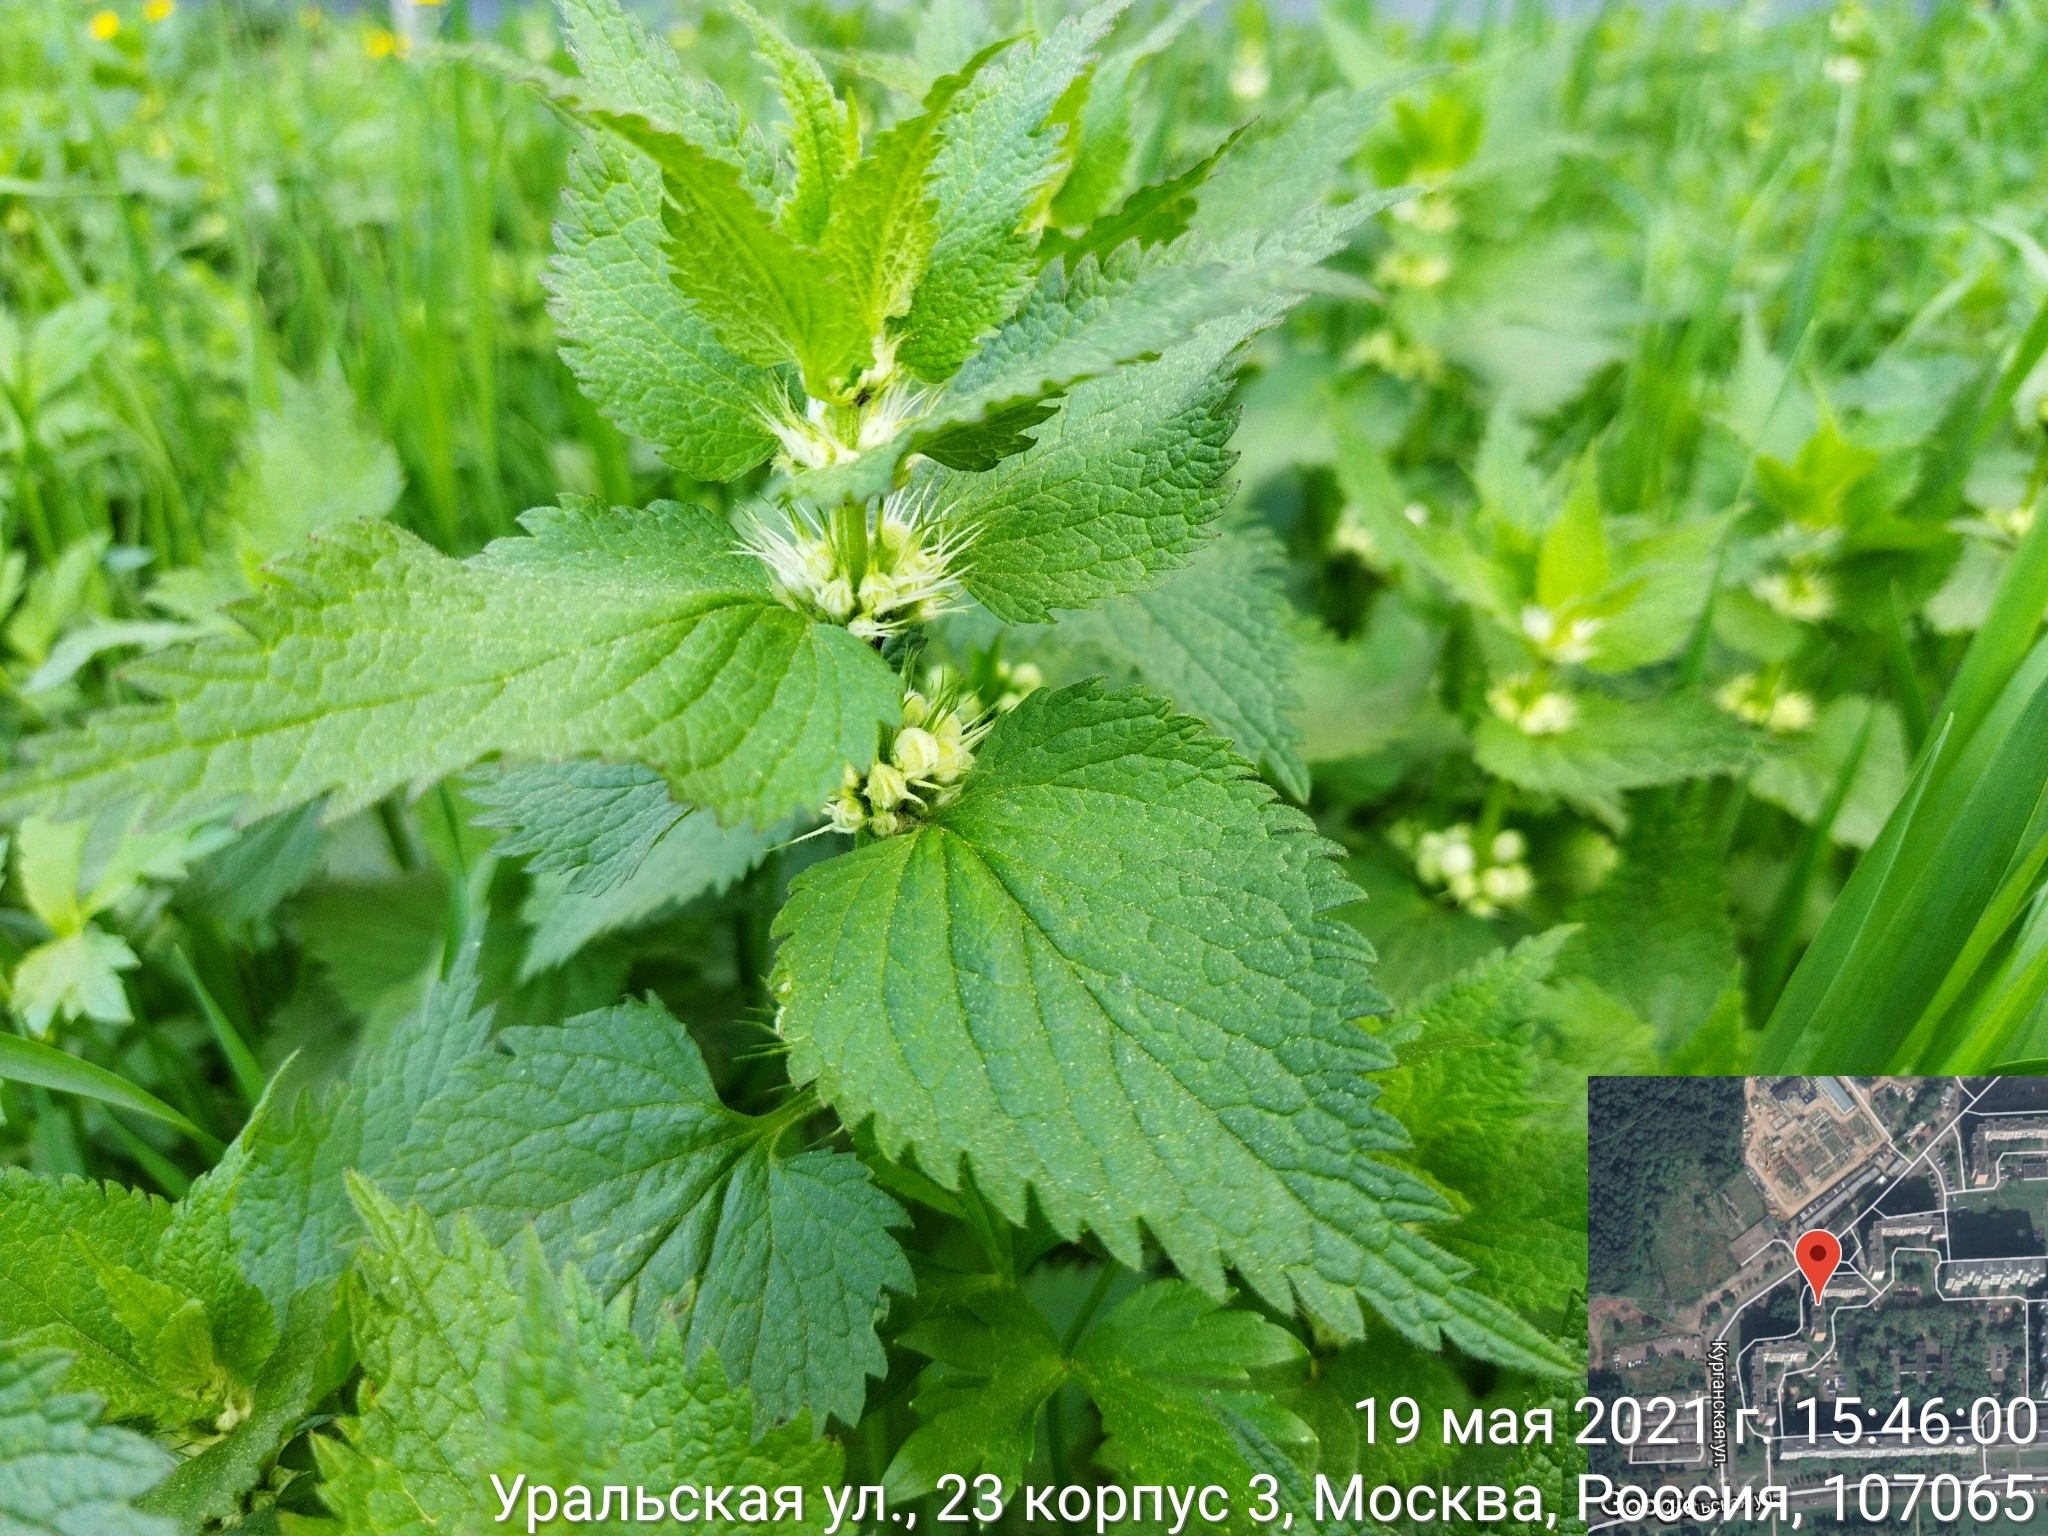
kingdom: Plantae
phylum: Tracheophyta
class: Magnoliopsida
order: Lamiales
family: Lamiaceae
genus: Lamium
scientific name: Lamium album
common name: White dead-nettle
